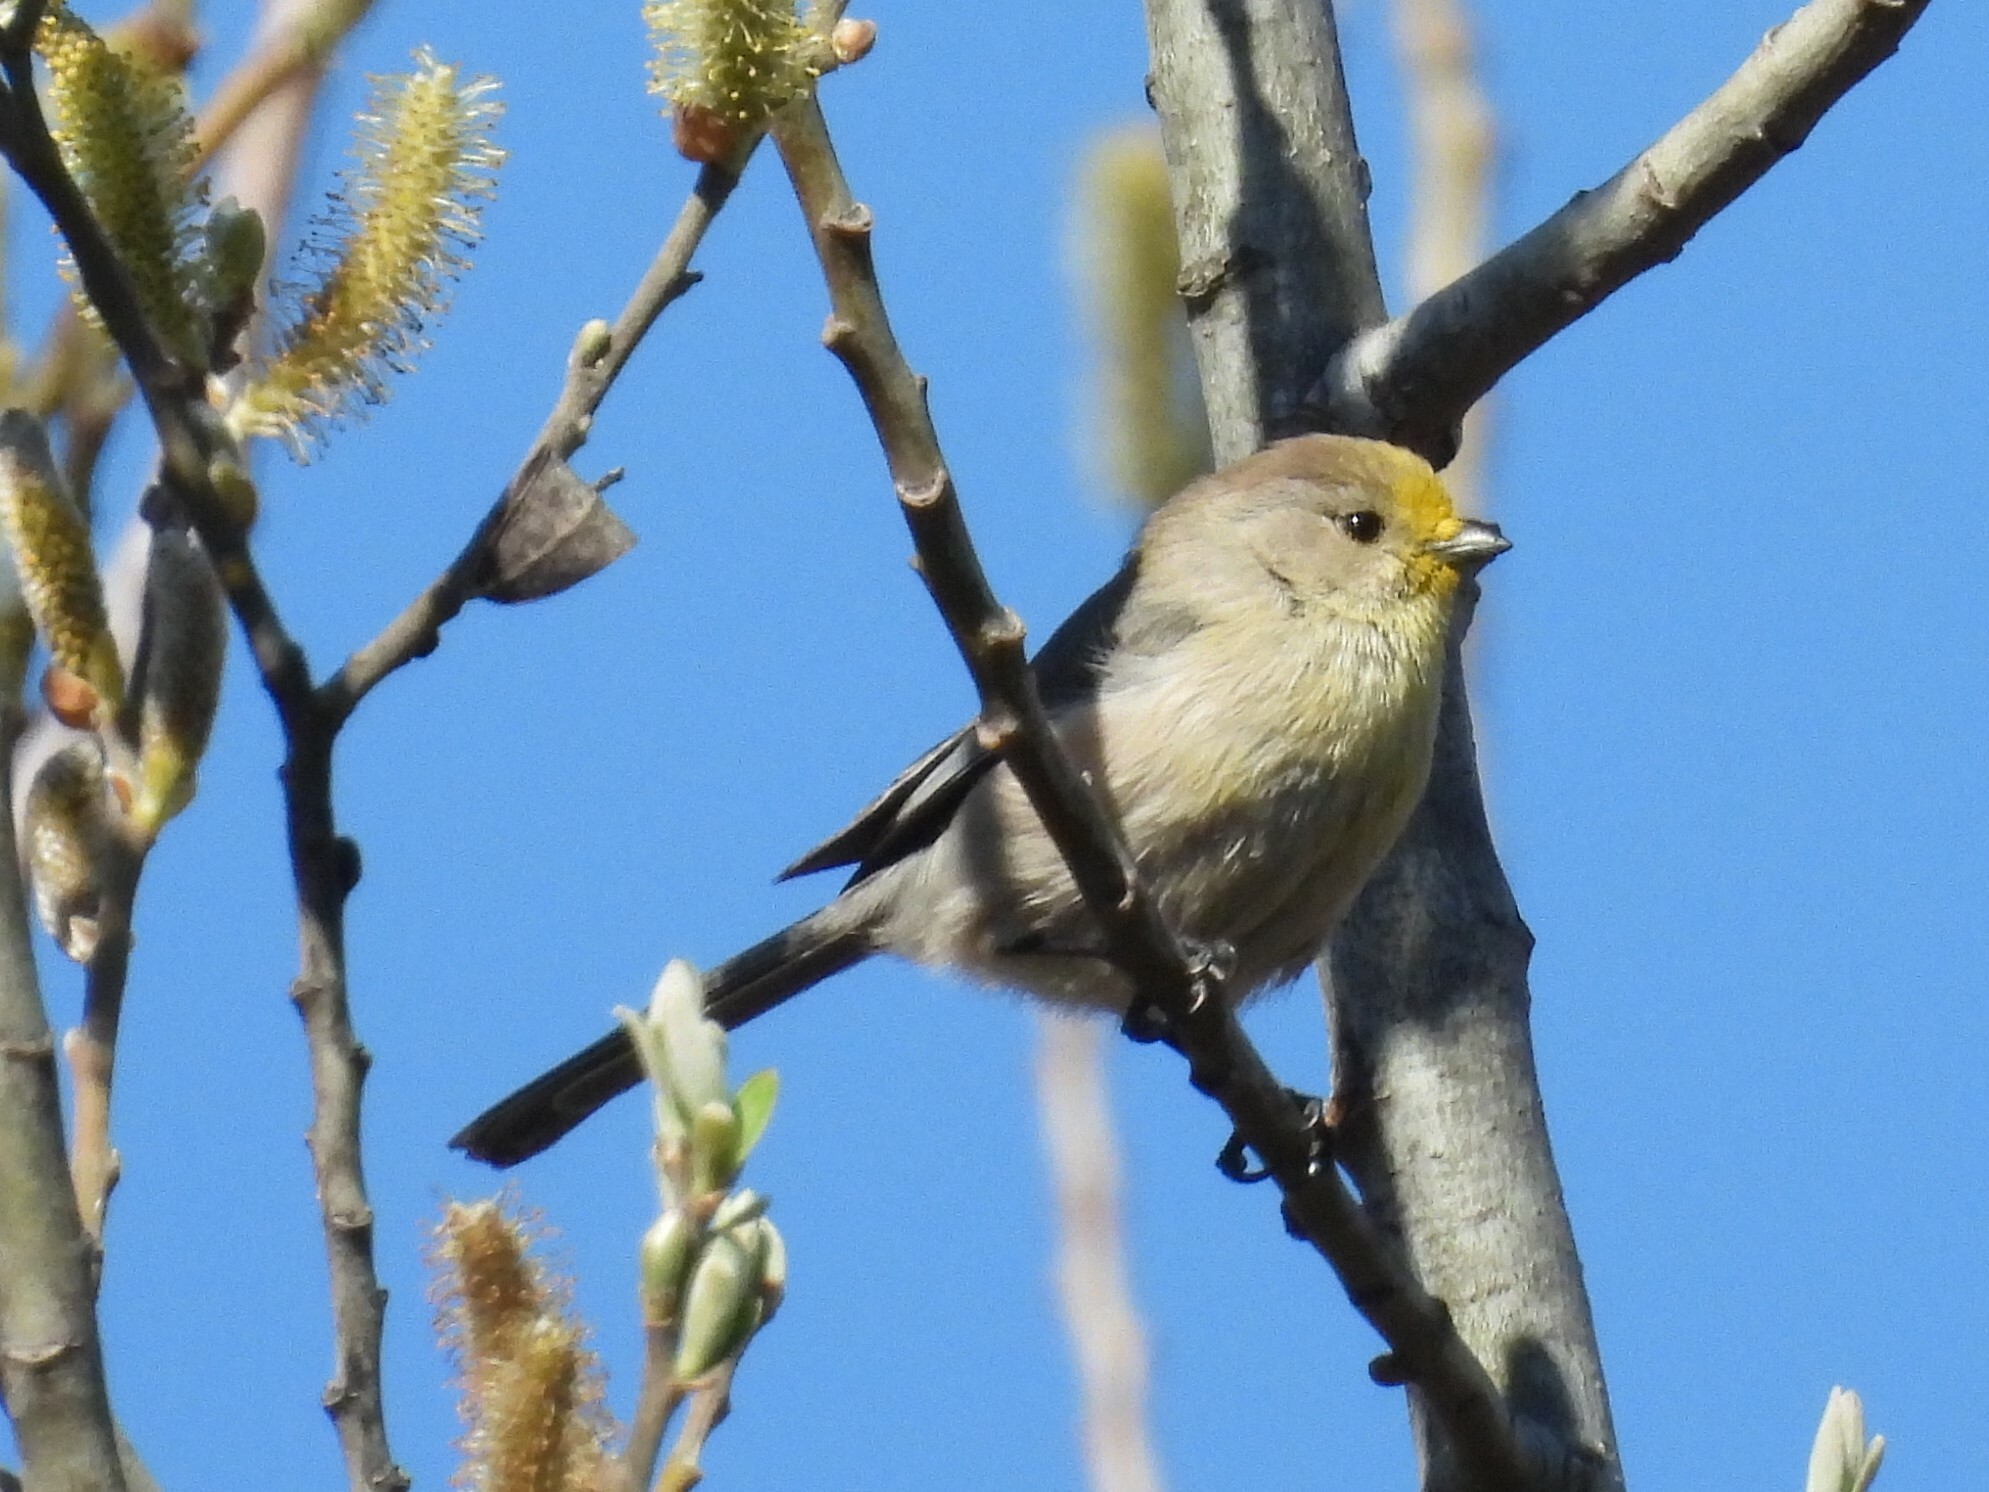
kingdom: Animalia
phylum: Chordata
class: Aves
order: Passeriformes
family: Aegithalidae
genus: Psaltriparus
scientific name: Psaltriparus minimus
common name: American bushtit
